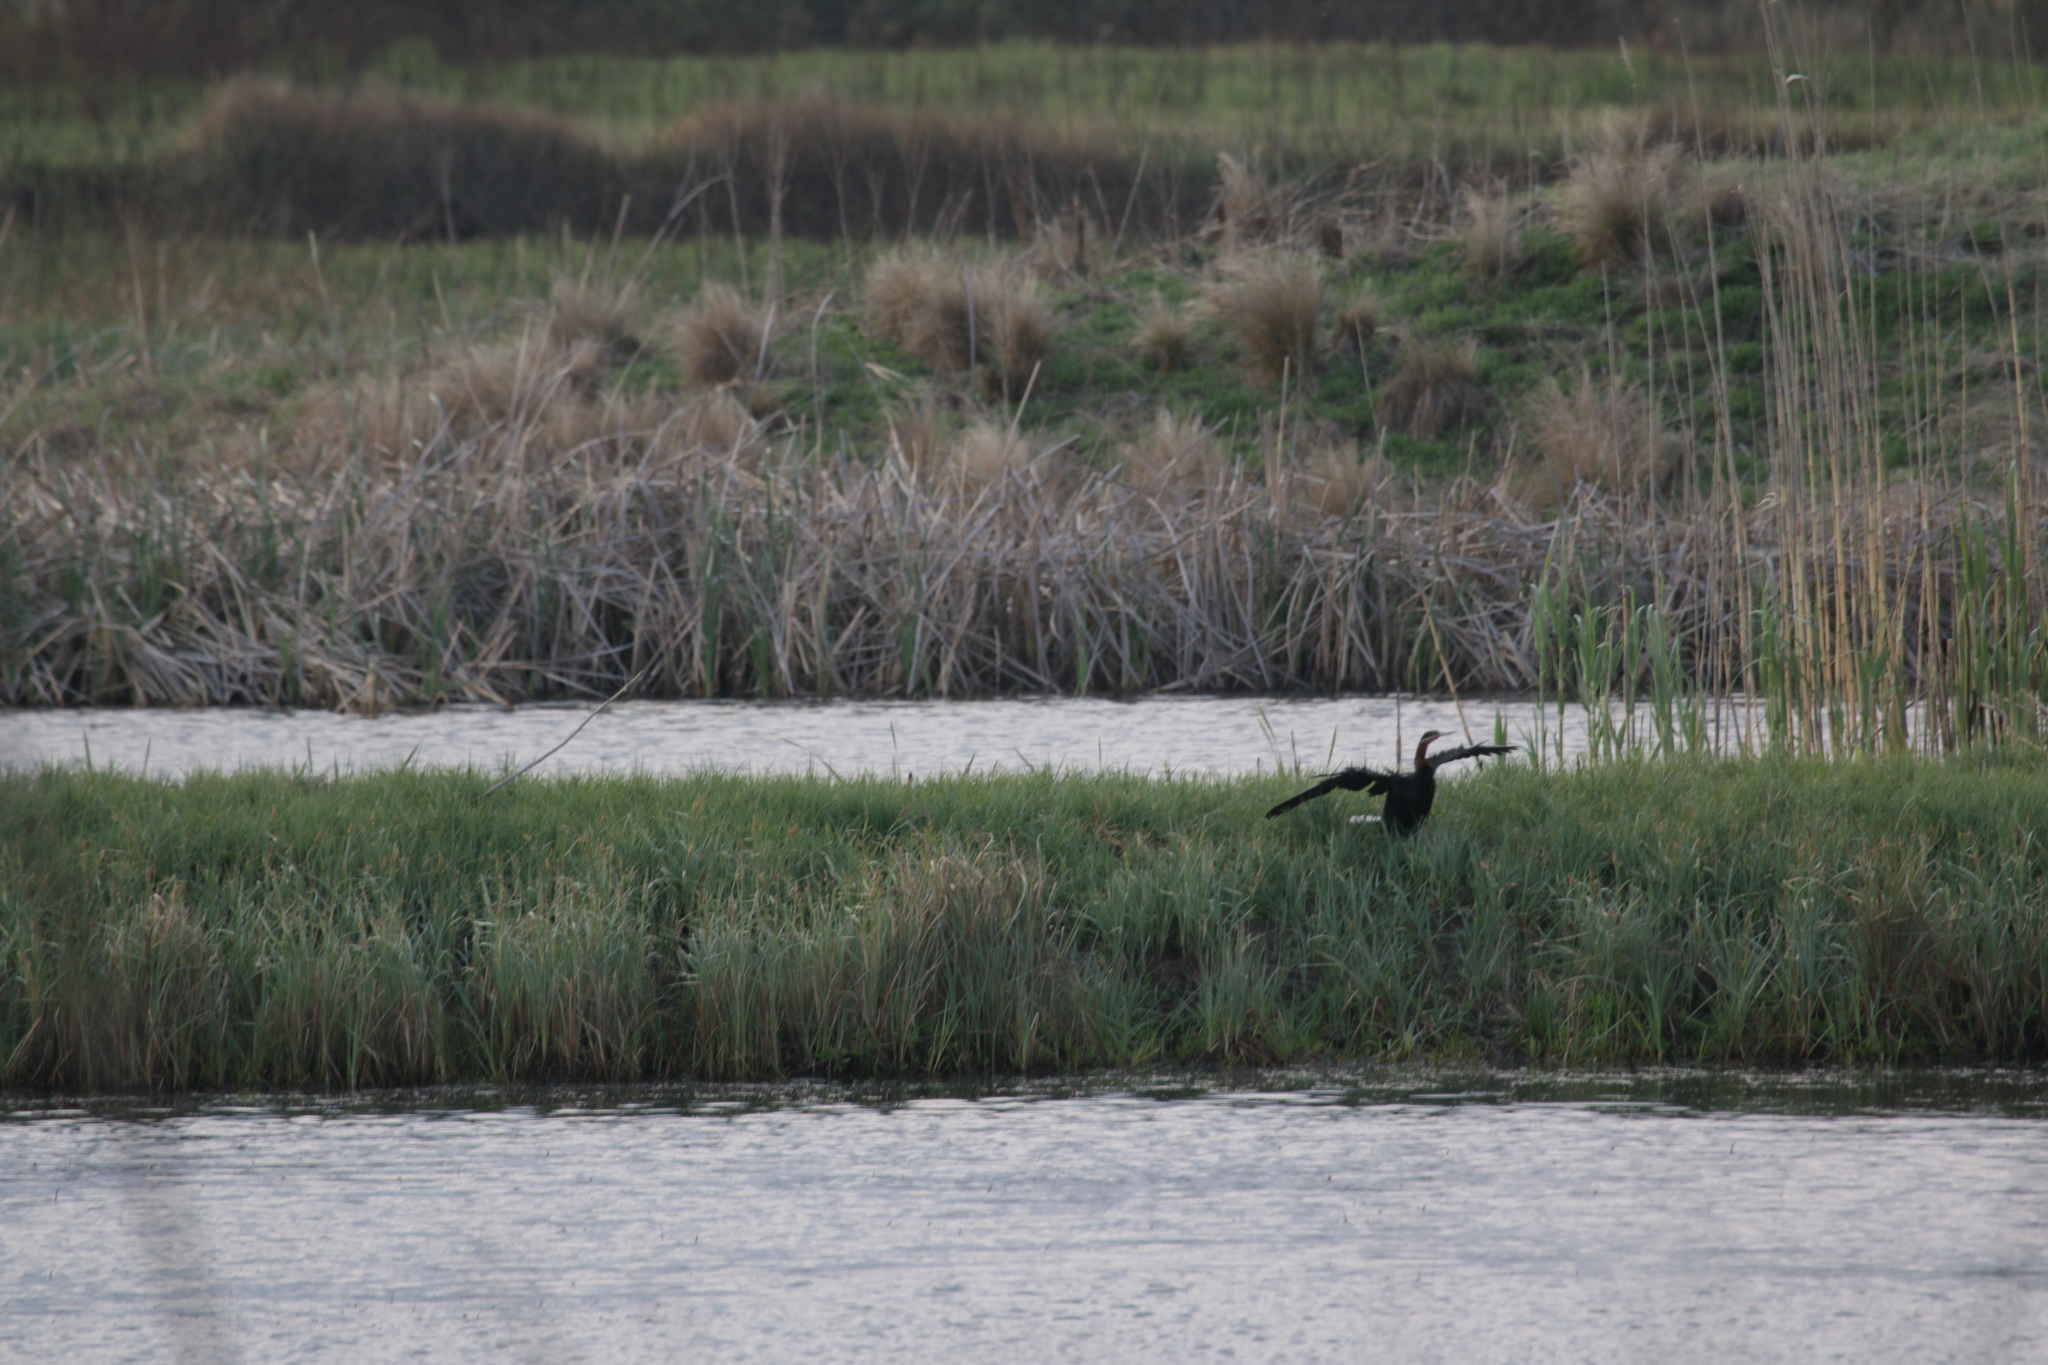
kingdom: Animalia
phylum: Chordata
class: Aves
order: Suliformes
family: Anhingidae
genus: Anhinga
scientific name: Anhinga rufa
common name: African darter
